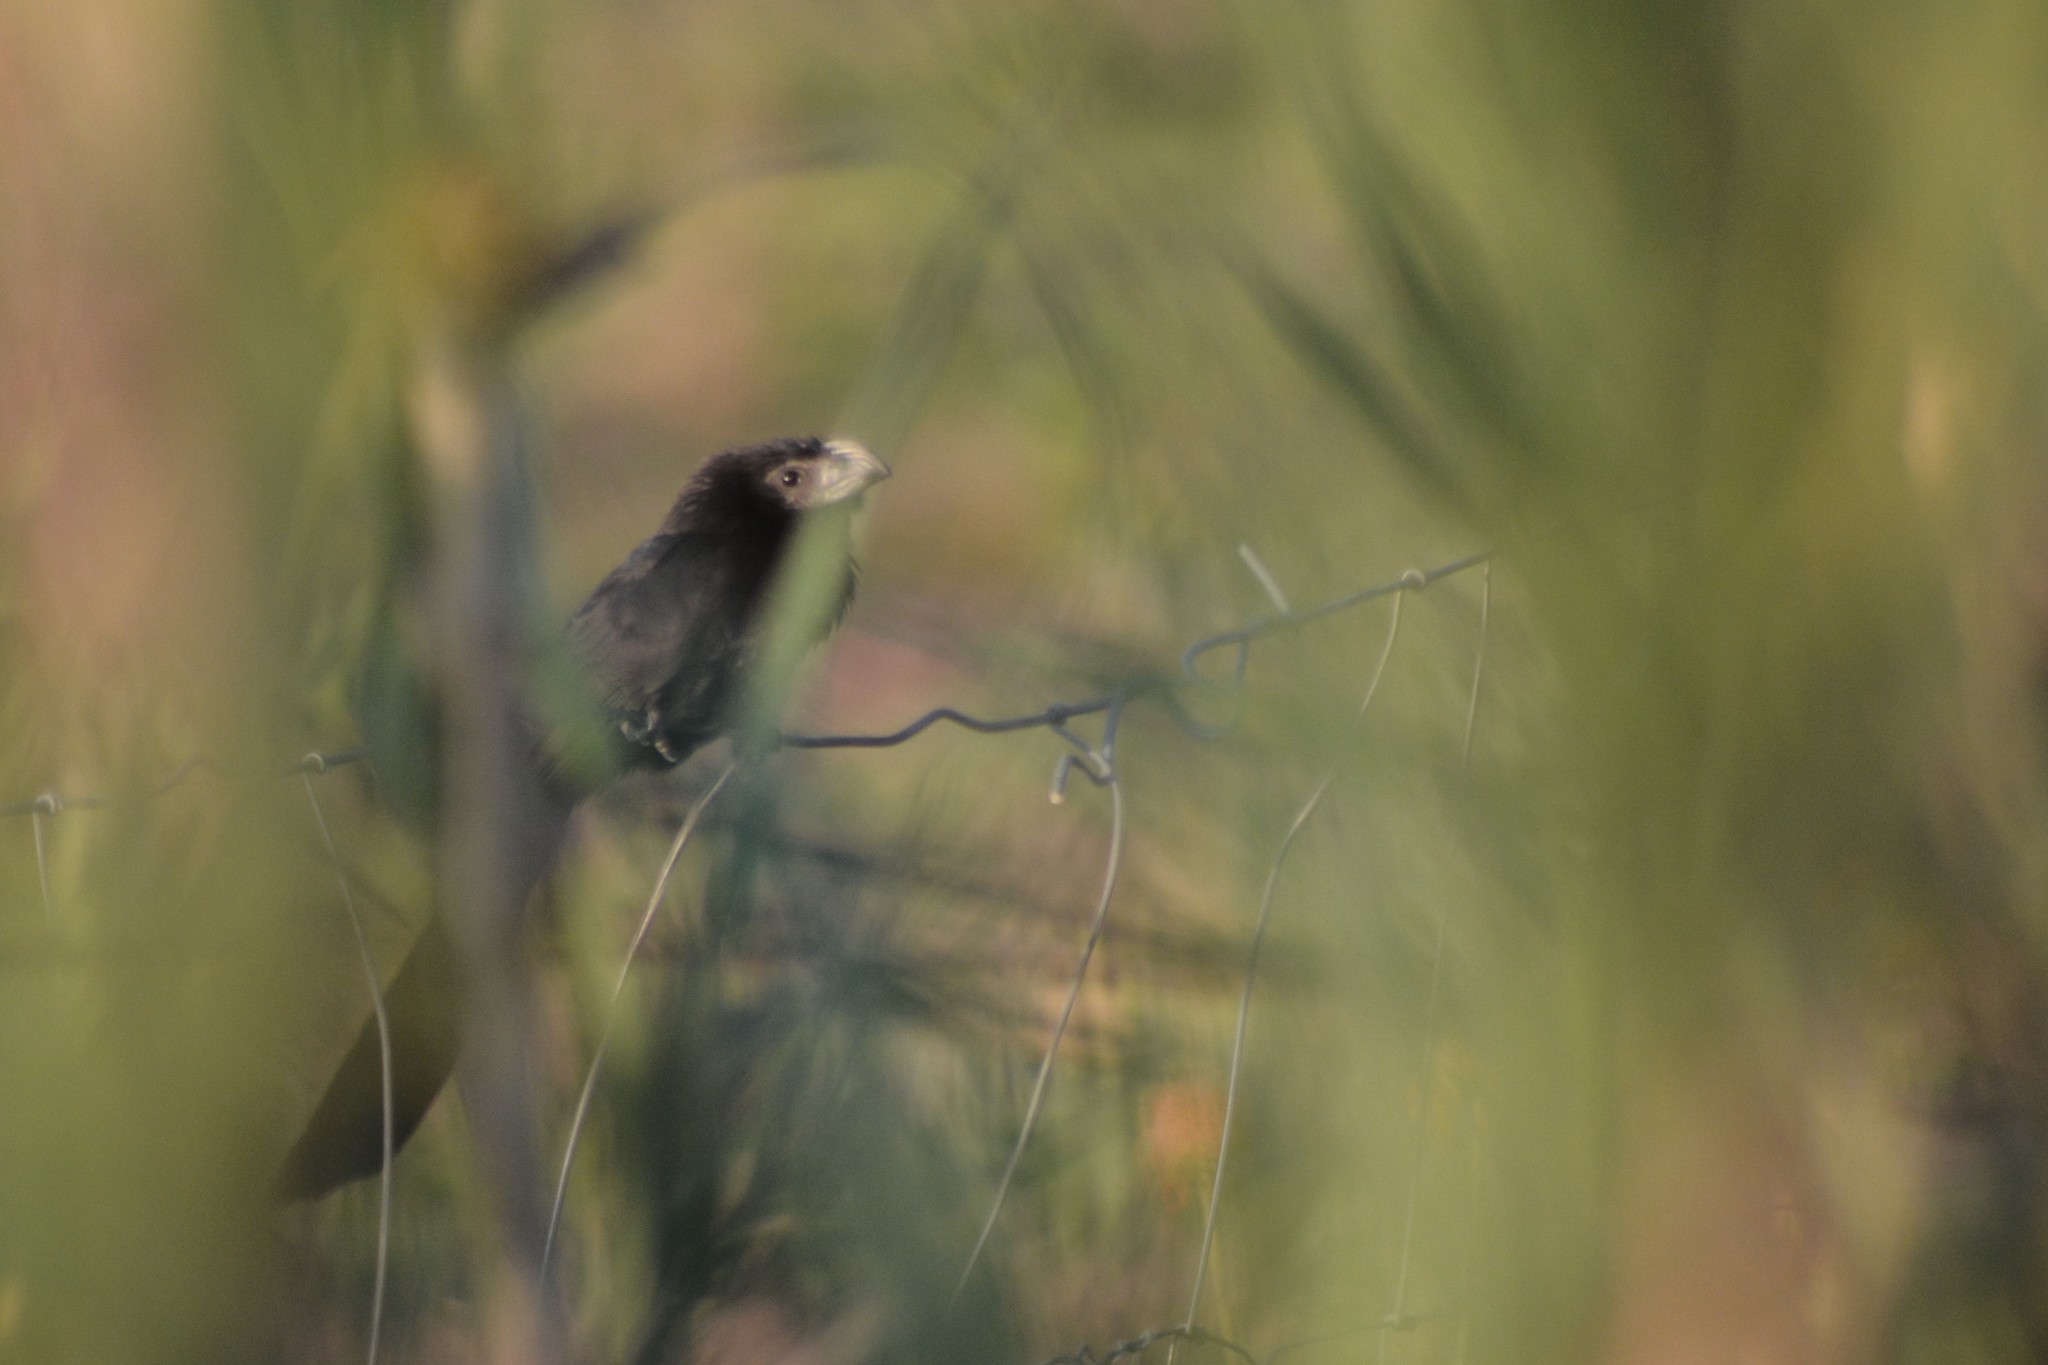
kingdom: Animalia
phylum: Chordata
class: Aves
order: Cuculiformes
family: Cuculidae
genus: Crotophaga
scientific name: Crotophaga sulcirostris
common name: Groove-billed ani
